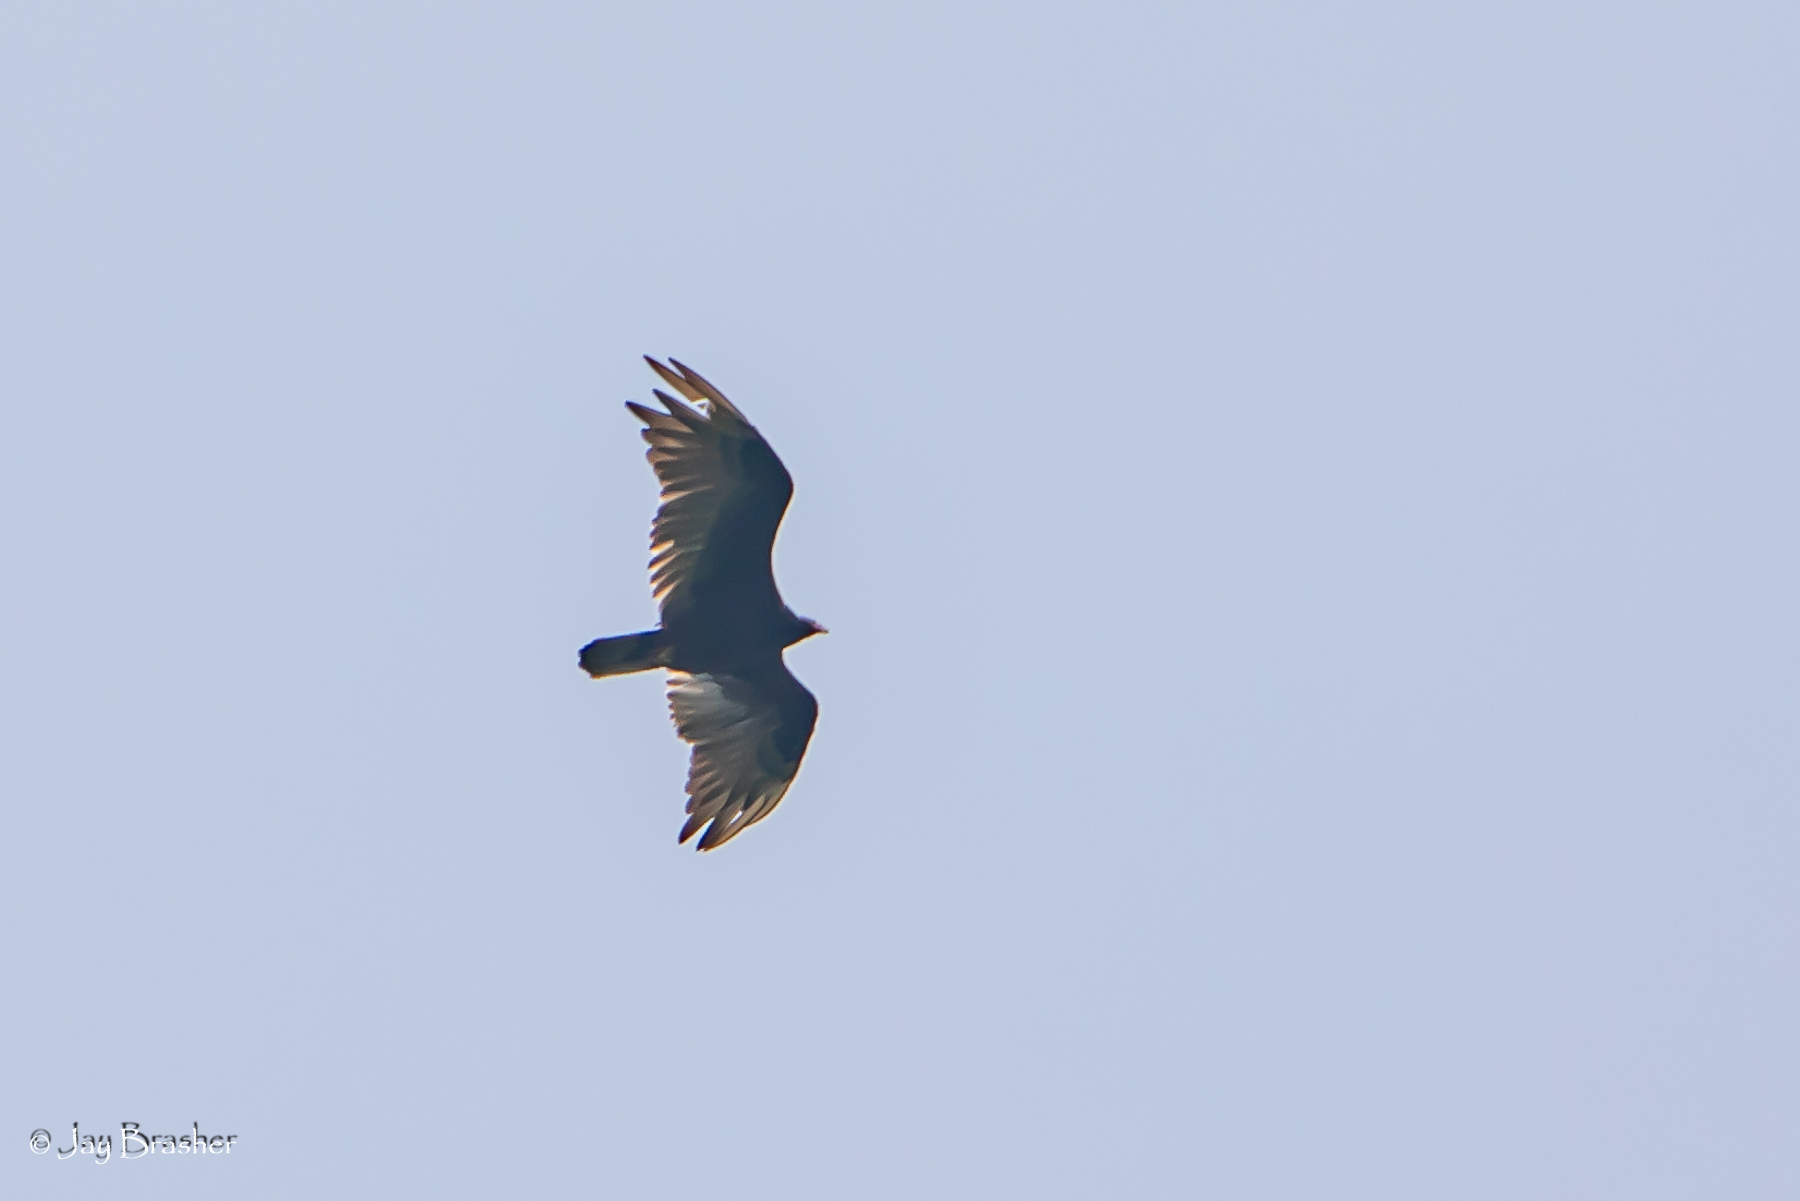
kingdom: Animalia
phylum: Chordata
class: Aves
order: Accipitriformes
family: Cathartidae
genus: Cathartes
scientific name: Cathartes aura
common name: Turkey vulture
